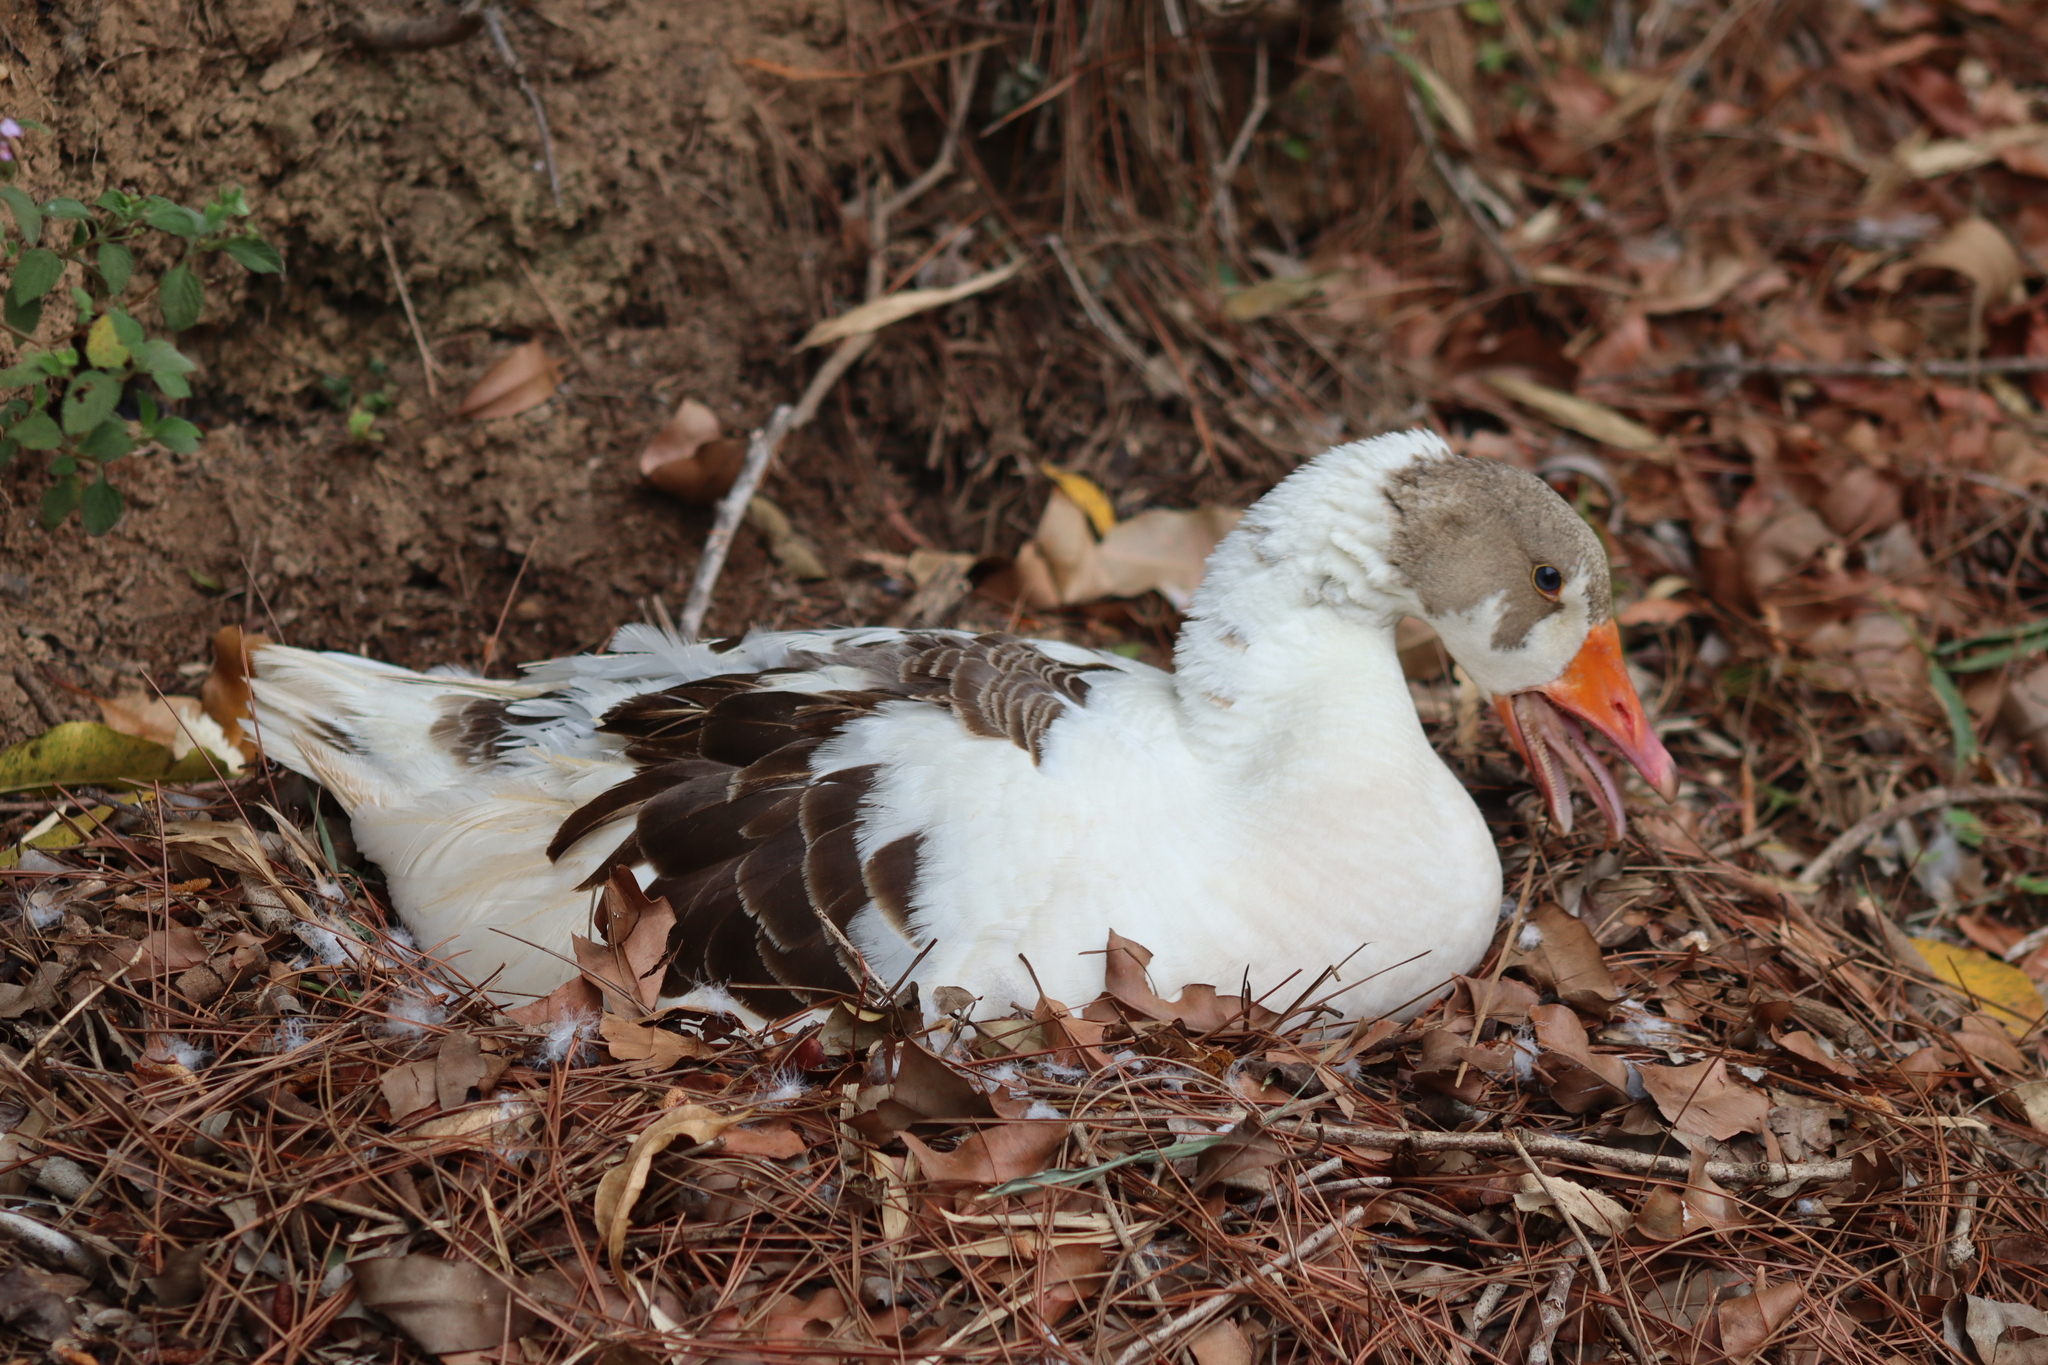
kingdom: Animalia
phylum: Chordata
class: Aves
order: Anseriformes
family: Anatidae
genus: Anser
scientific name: Anser anser
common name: Greylag goose
